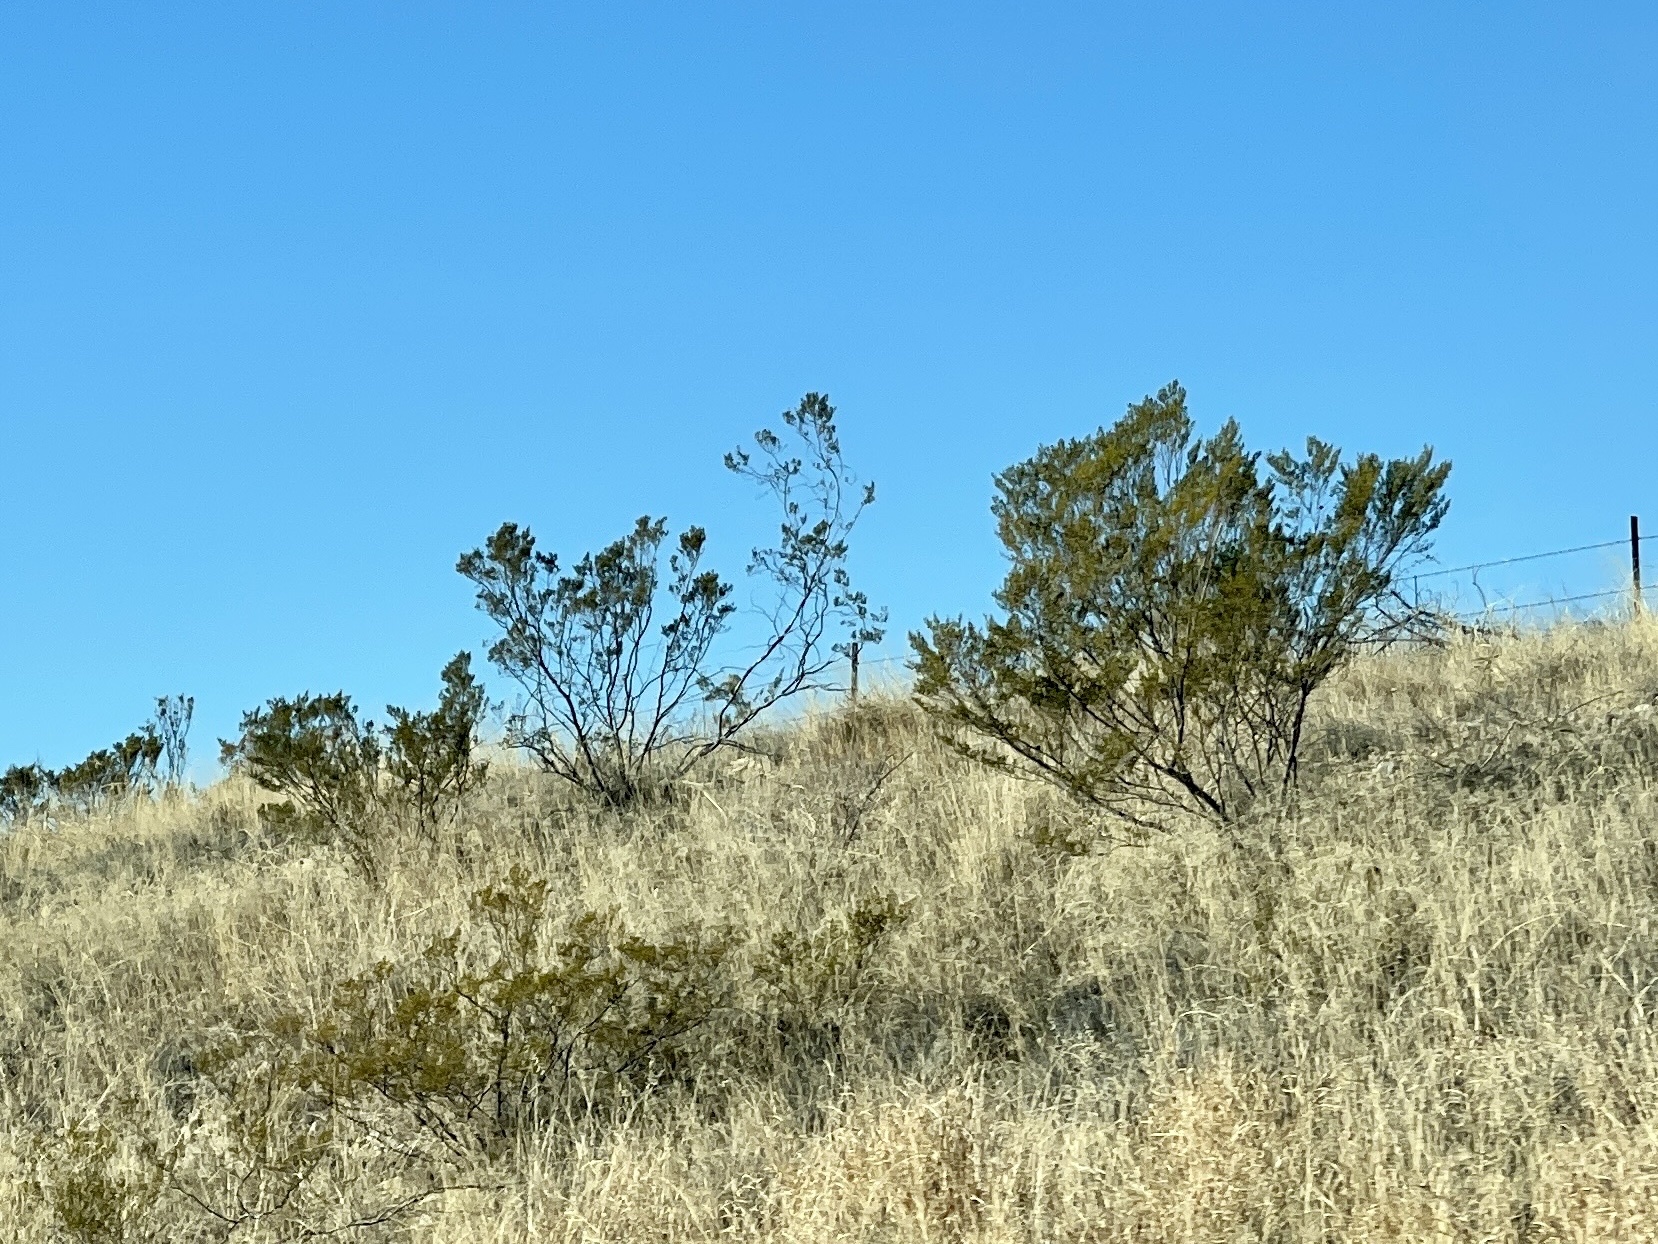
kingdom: Plantae
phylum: Tracheophyta
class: Magnoliopsida
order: Zygophyllales
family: Zygophyllaceae
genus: Larrea
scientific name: Larrea tridentata
